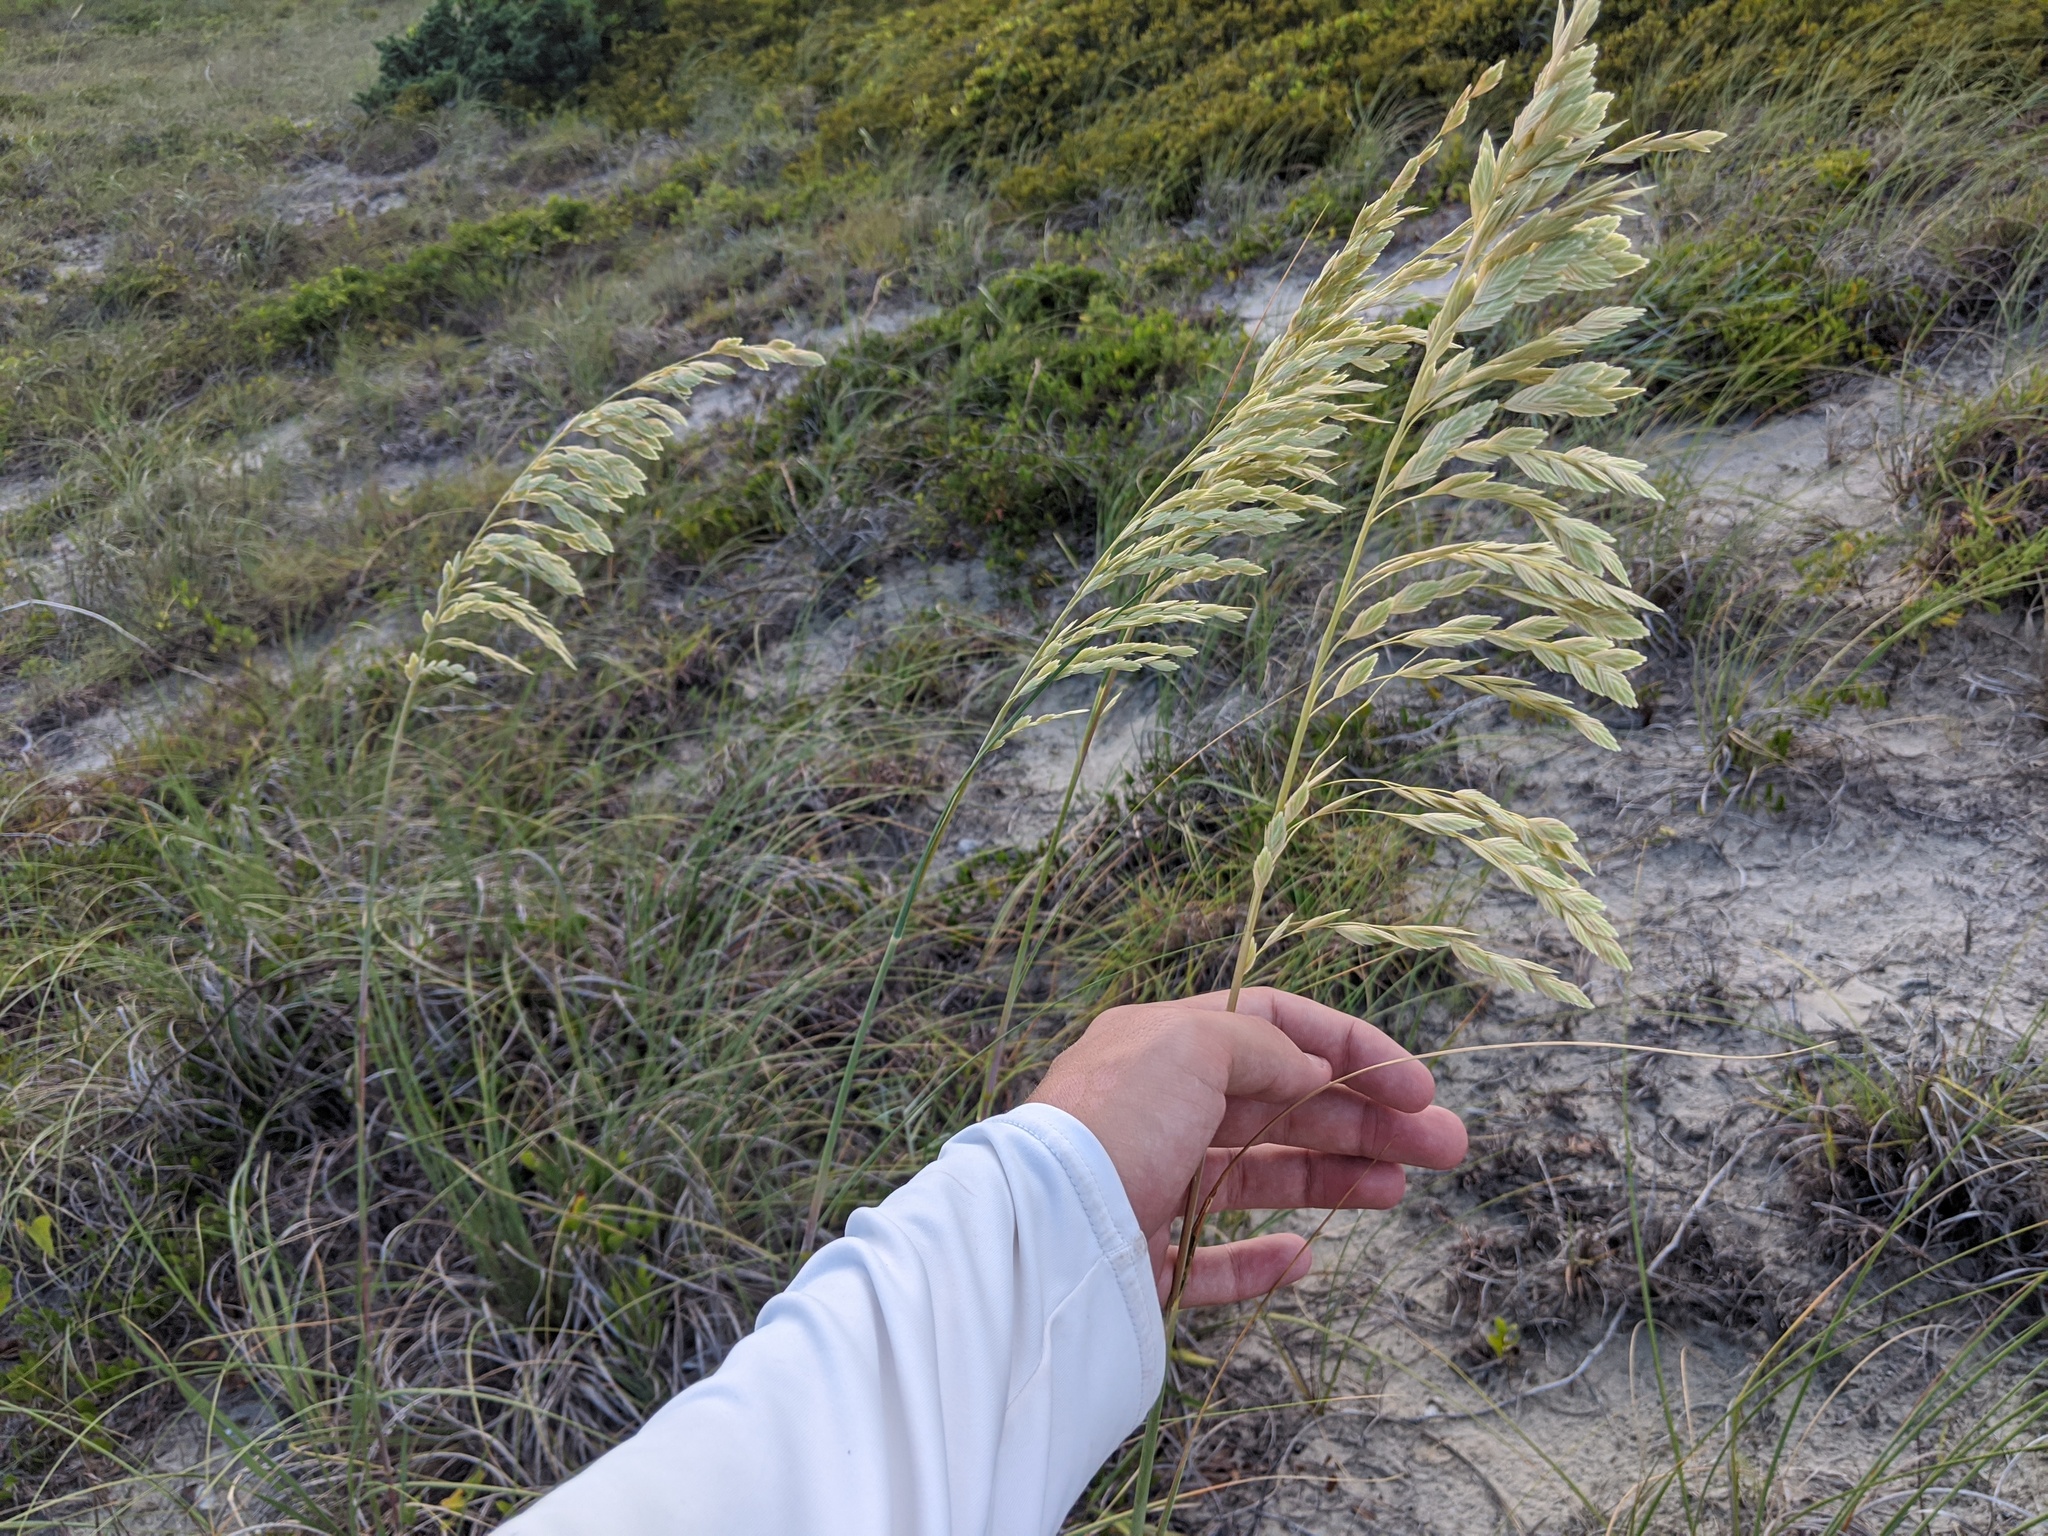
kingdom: Plantae
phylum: Tracheophyta
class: Liliopsida
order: Poales
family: Poaceae
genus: Uniola
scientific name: Uniola paniculata
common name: Seaside-oats
